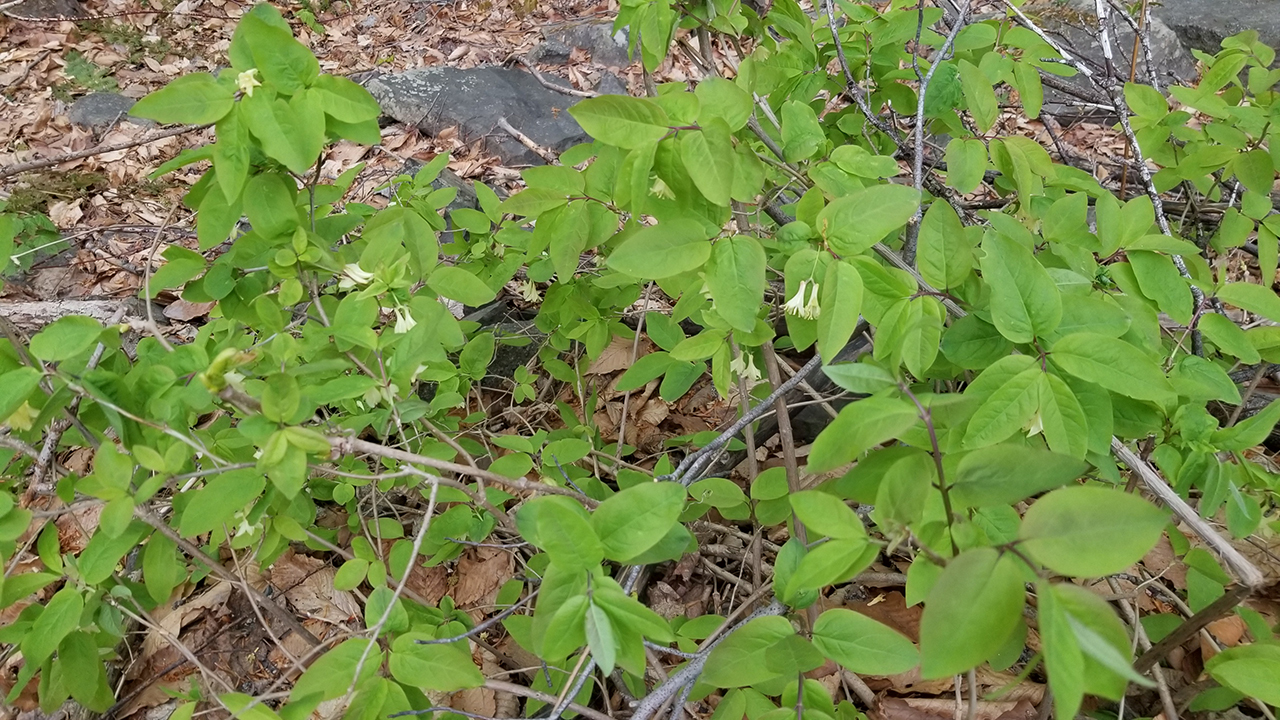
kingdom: Plantae
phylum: Tracheophyta
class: Magnoliopsida
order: Dipsacales
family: Caprifoliaceae
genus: Lonicera
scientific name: Lonicera canadensis
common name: American fly-honeysuckle
